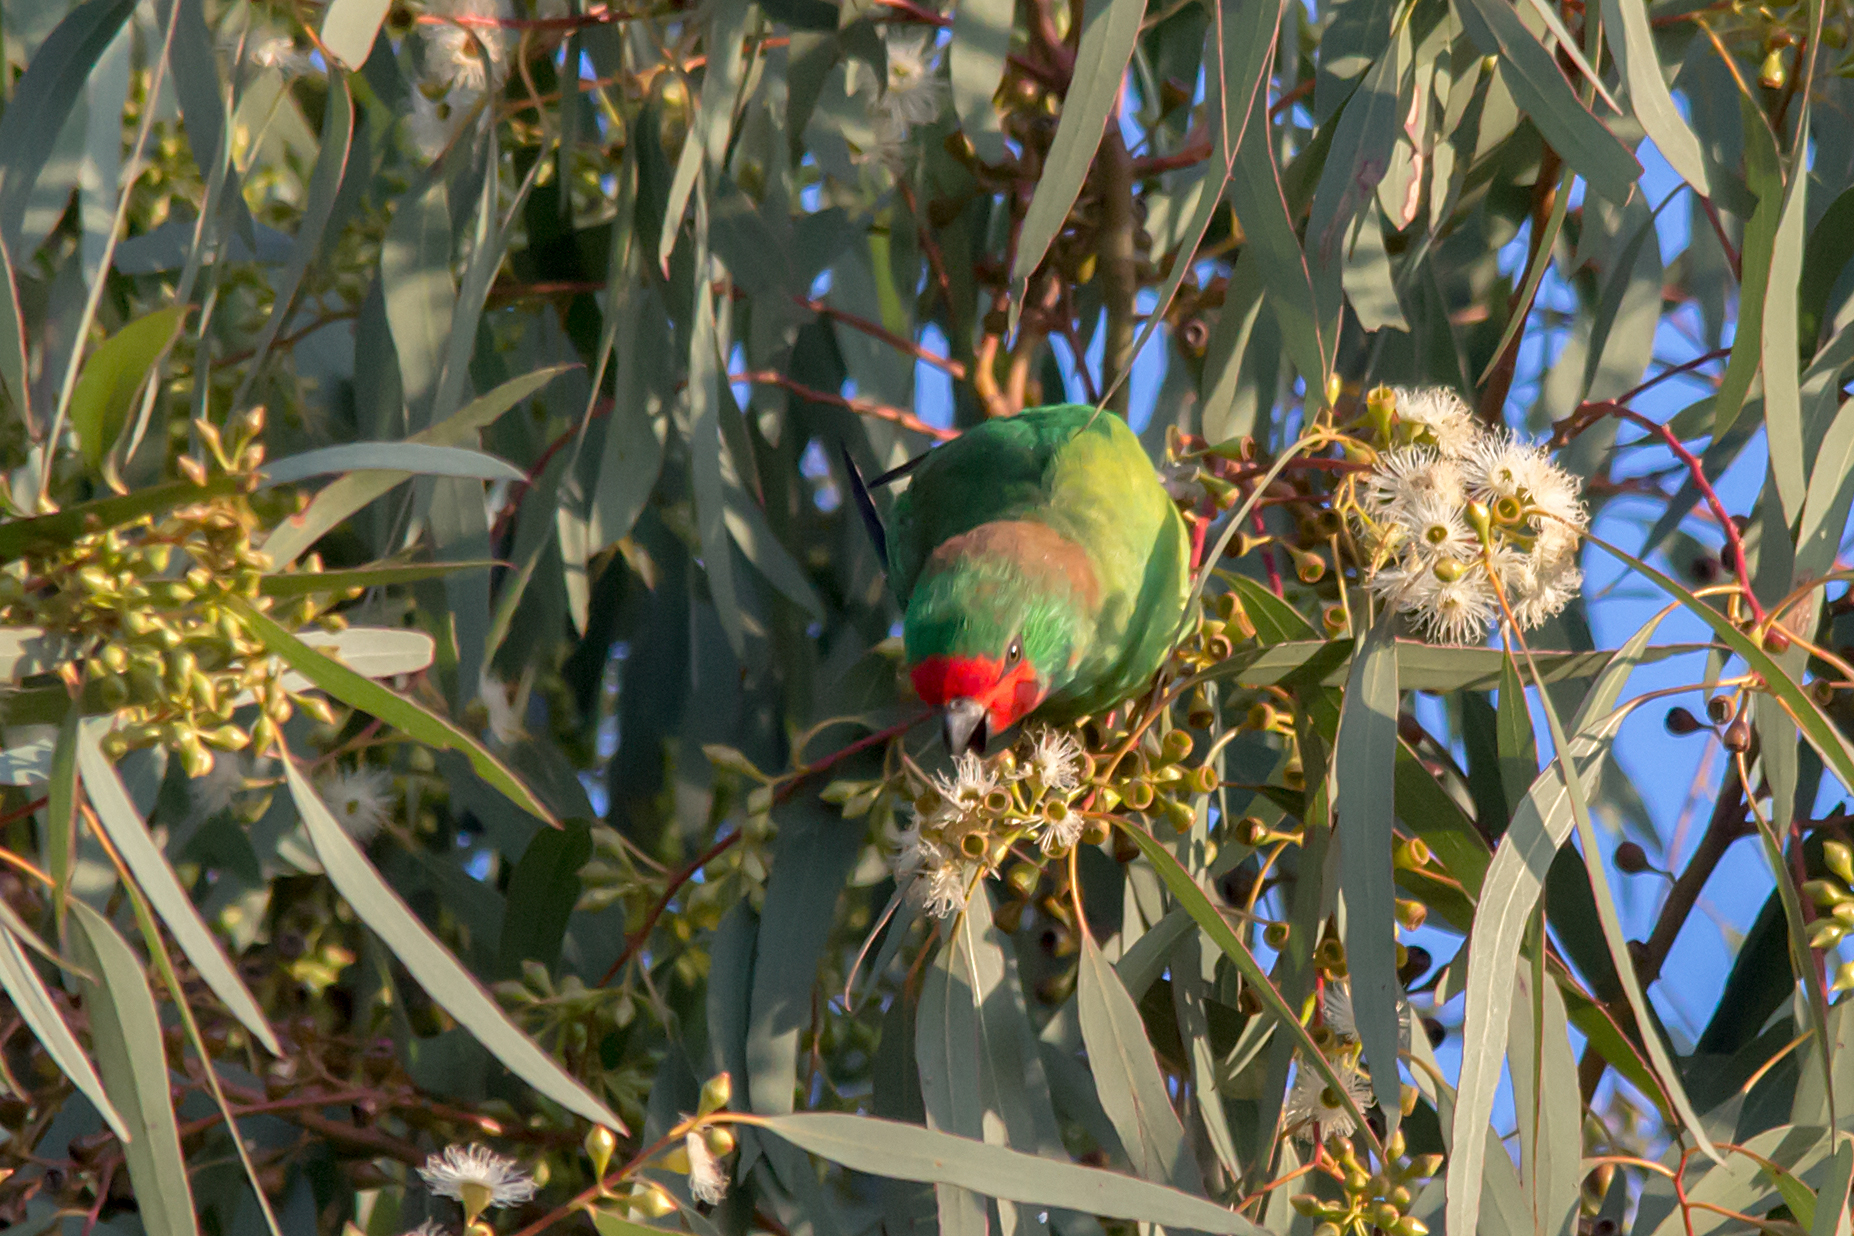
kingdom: Animalia
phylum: Chordata
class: Aves
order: Psittaciformes
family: Psittaculidae
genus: Parvipsitta
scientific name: Parvipsitta pusilla
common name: Little lorikeet
